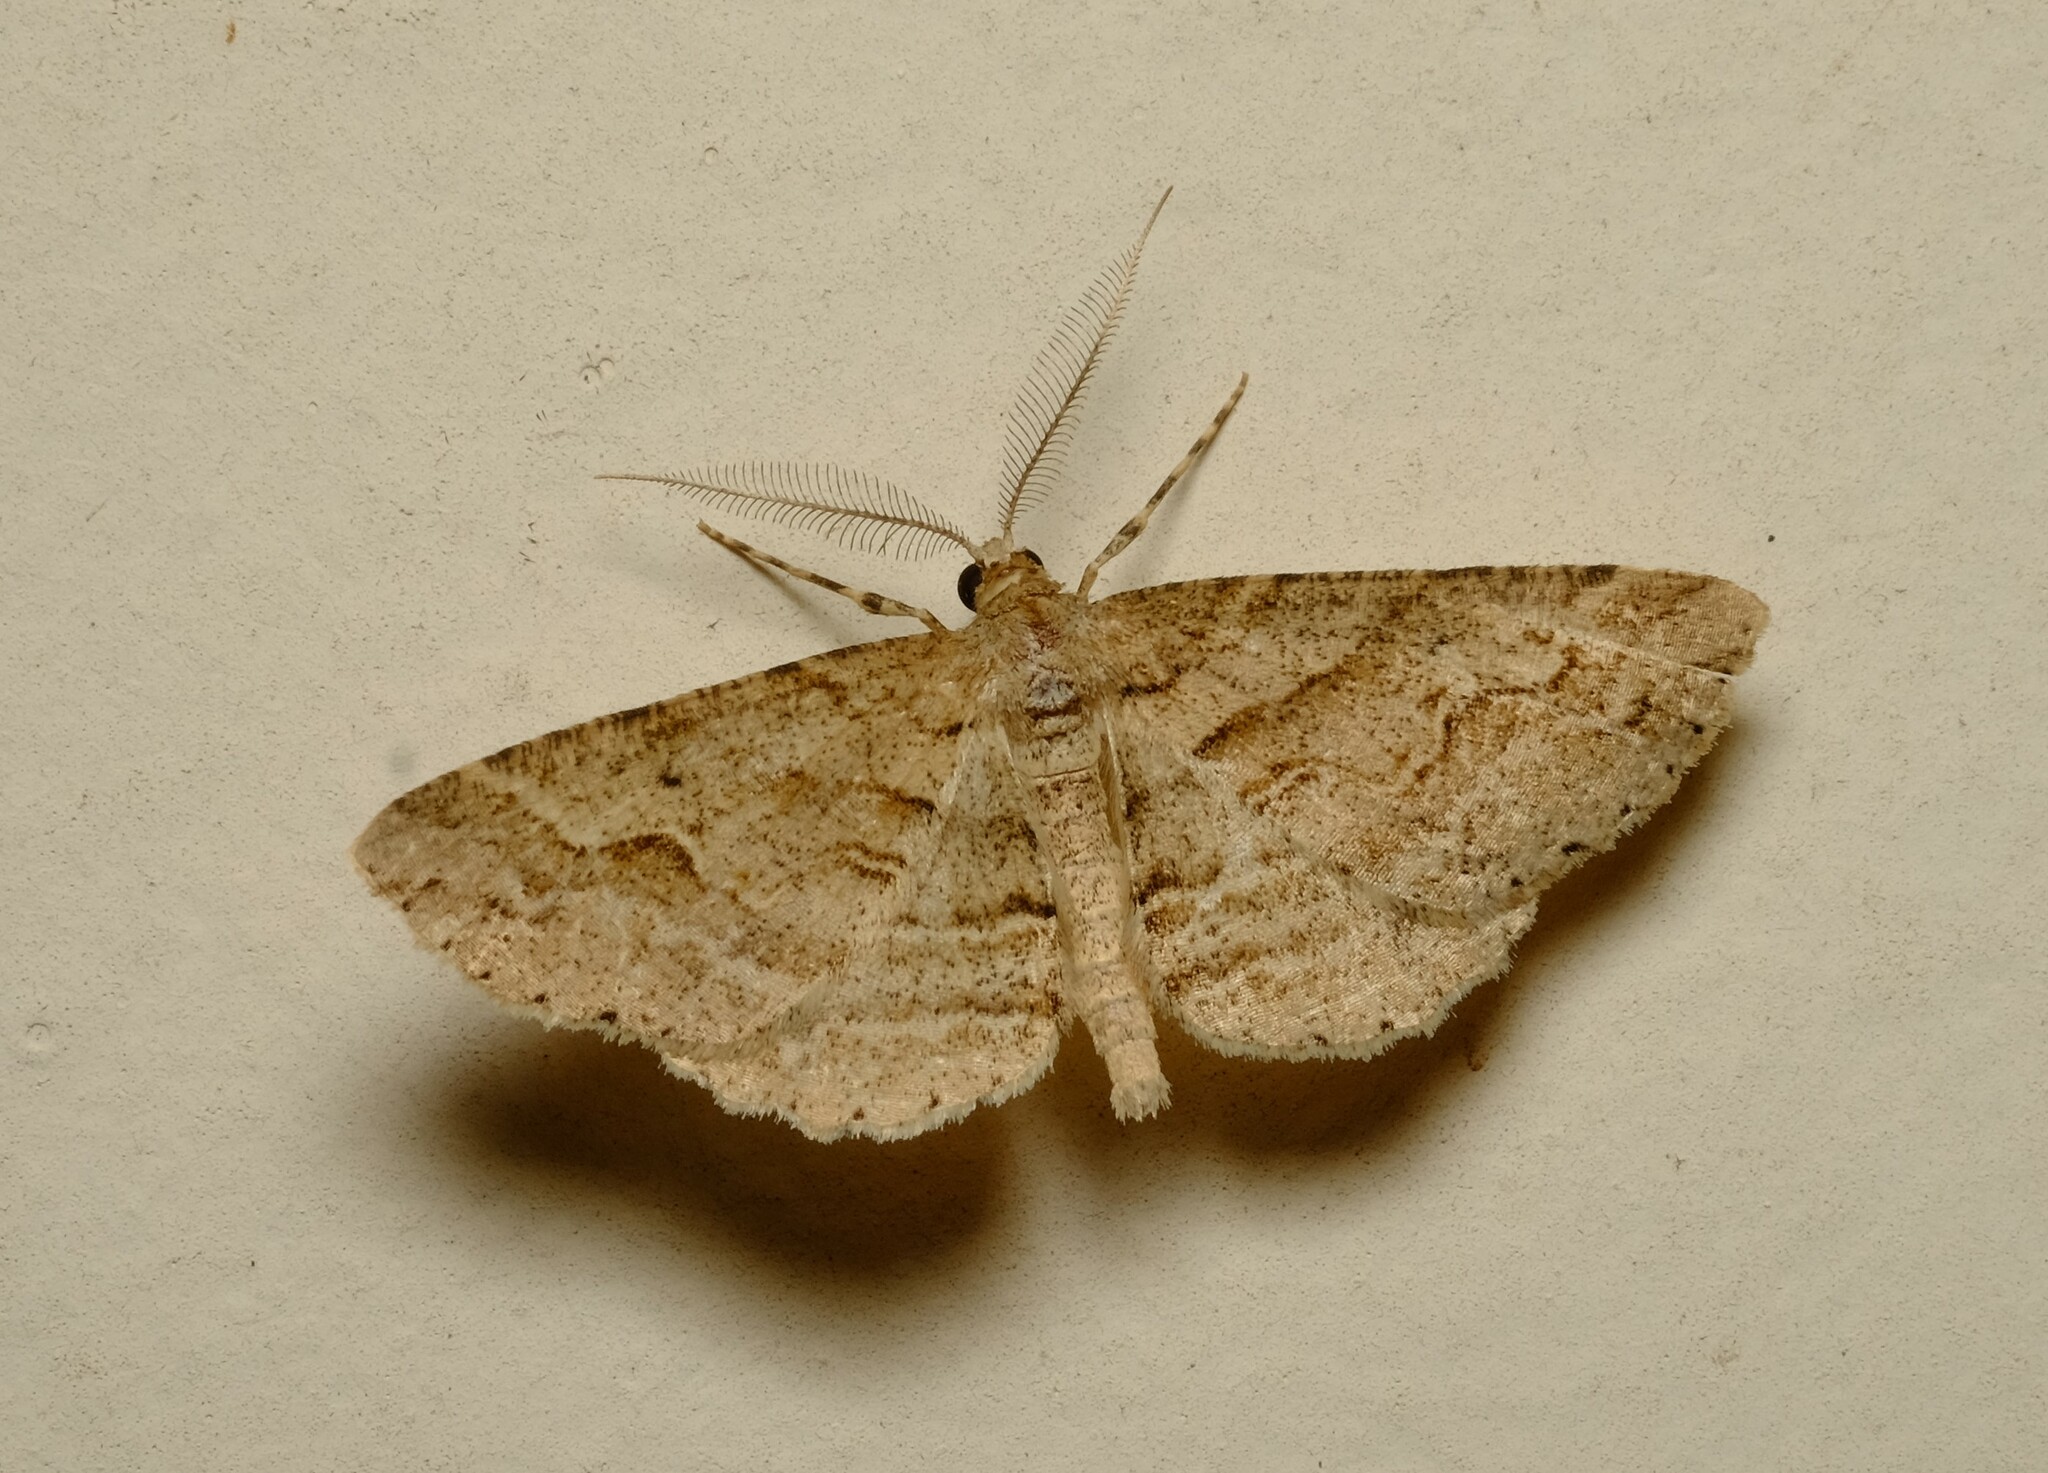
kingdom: Animalia
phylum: Arthropoda
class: Insecta
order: Lepidoptera
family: Geometridae
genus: Syneora
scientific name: Syneora fractata
